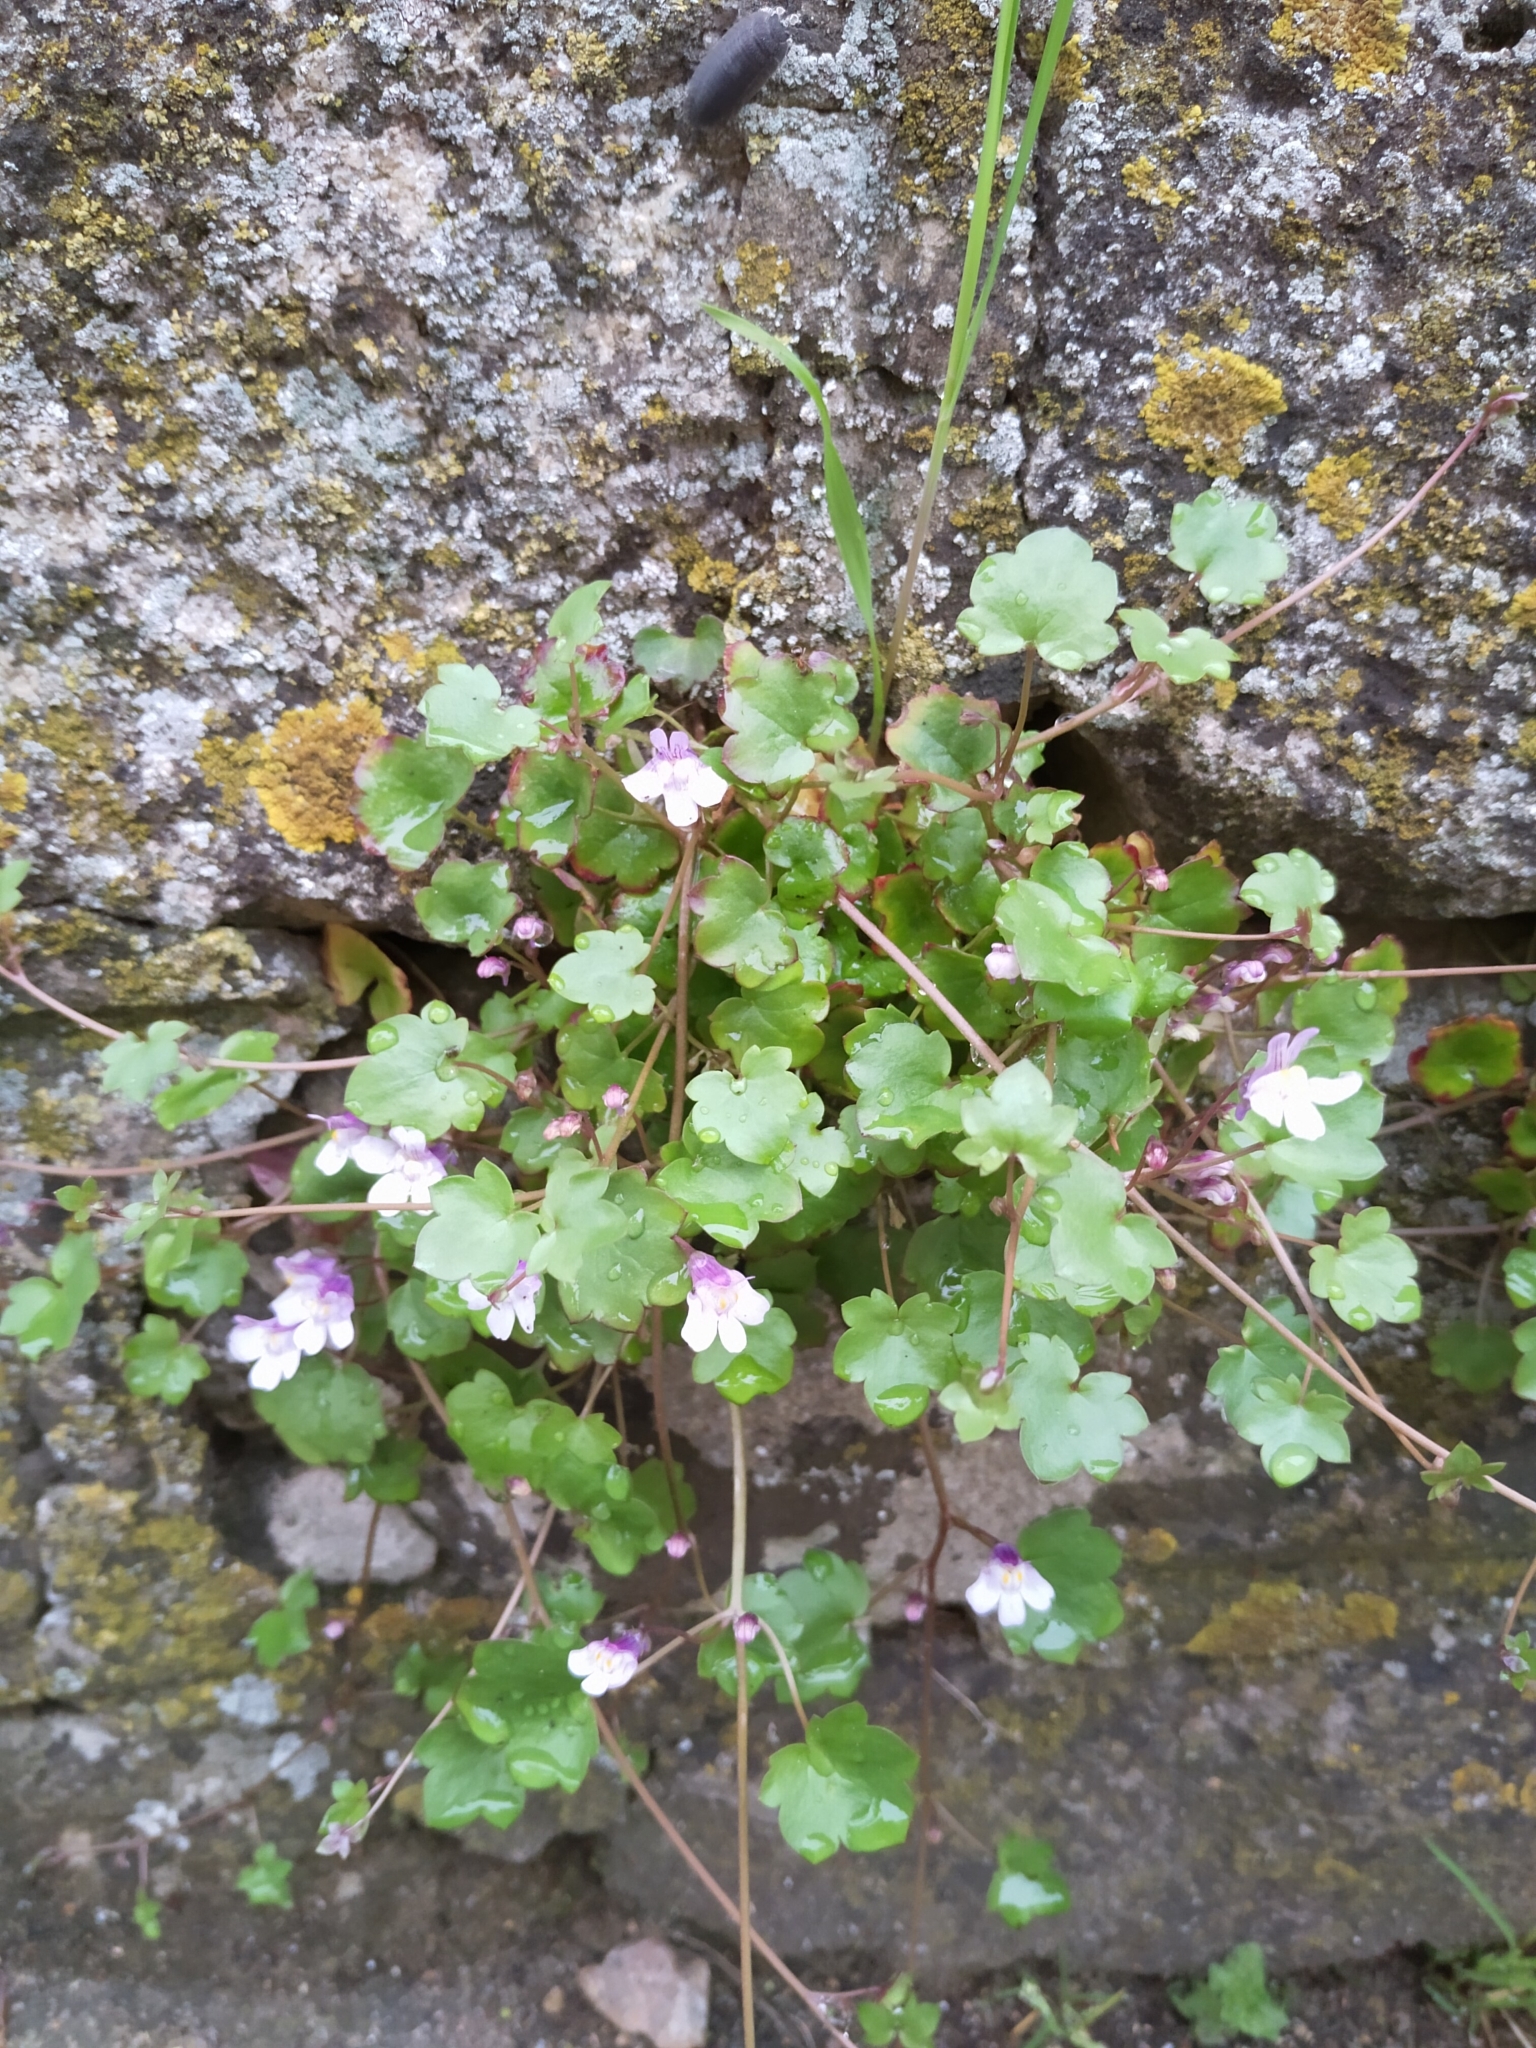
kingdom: Plantae
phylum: Tracheophyta
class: Magnoliopsida
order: Lamiales
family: Plantaginaceae
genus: Cymbalaria
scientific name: Cymbalaria muralis
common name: Ivy-leaved toadflax
